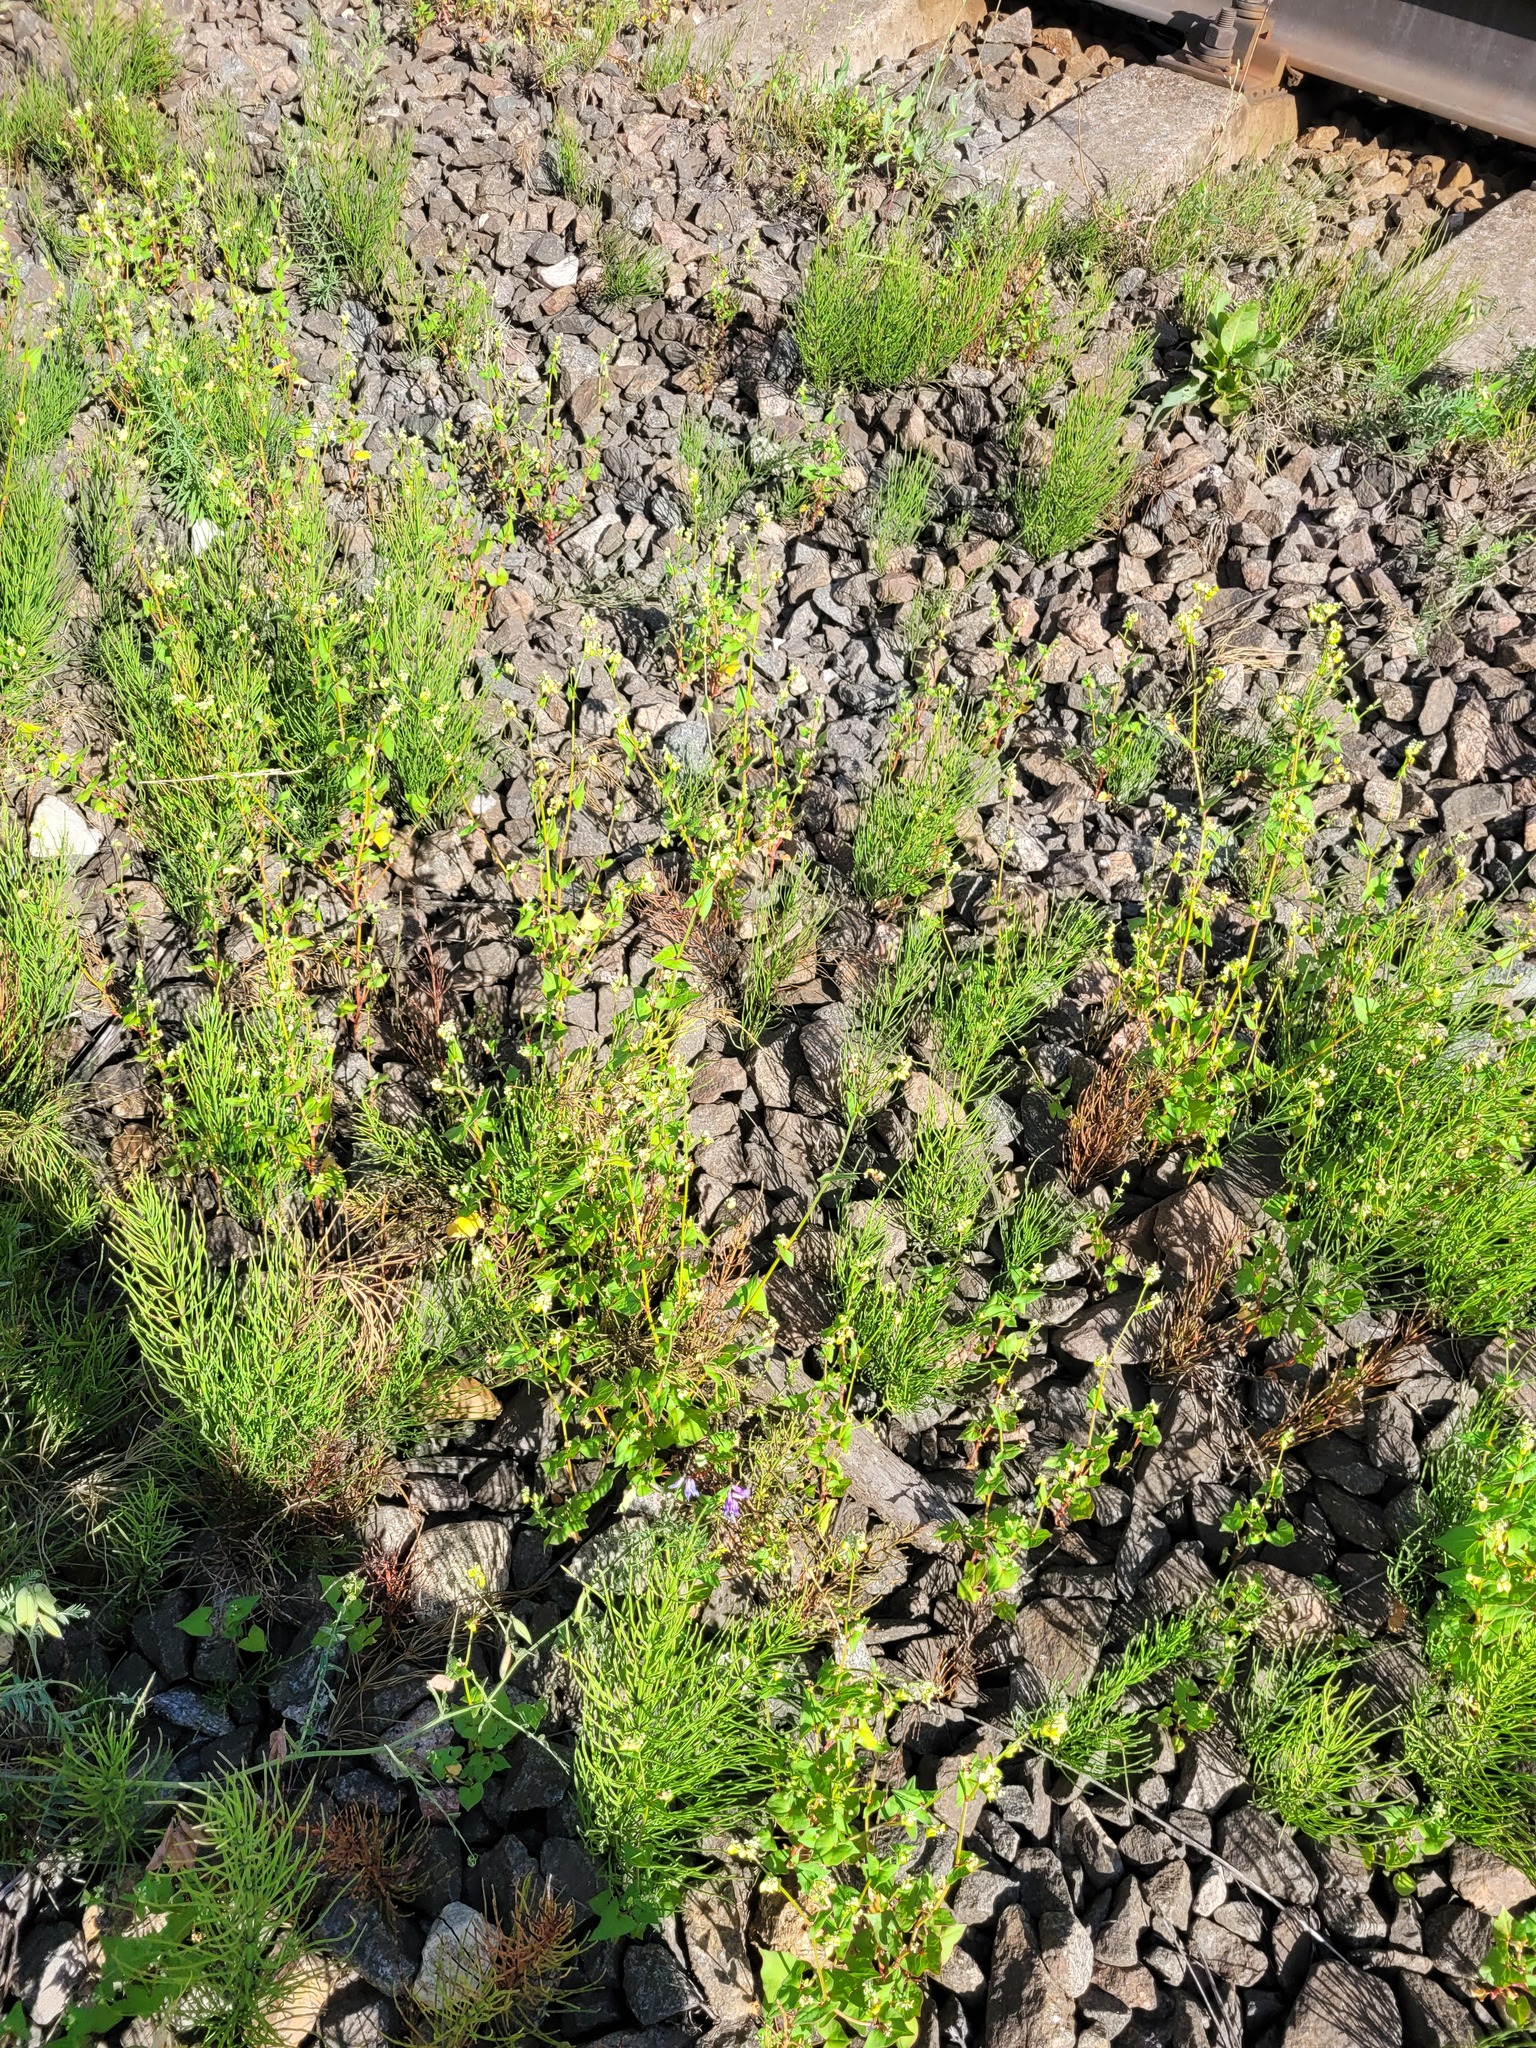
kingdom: Plantae
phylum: Tracheophyta
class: Magnoliopsida
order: Caryophyllales
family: Polygonaceae
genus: Fagopyrum
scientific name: Fagopyrum tataricum
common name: Green buckwheat
